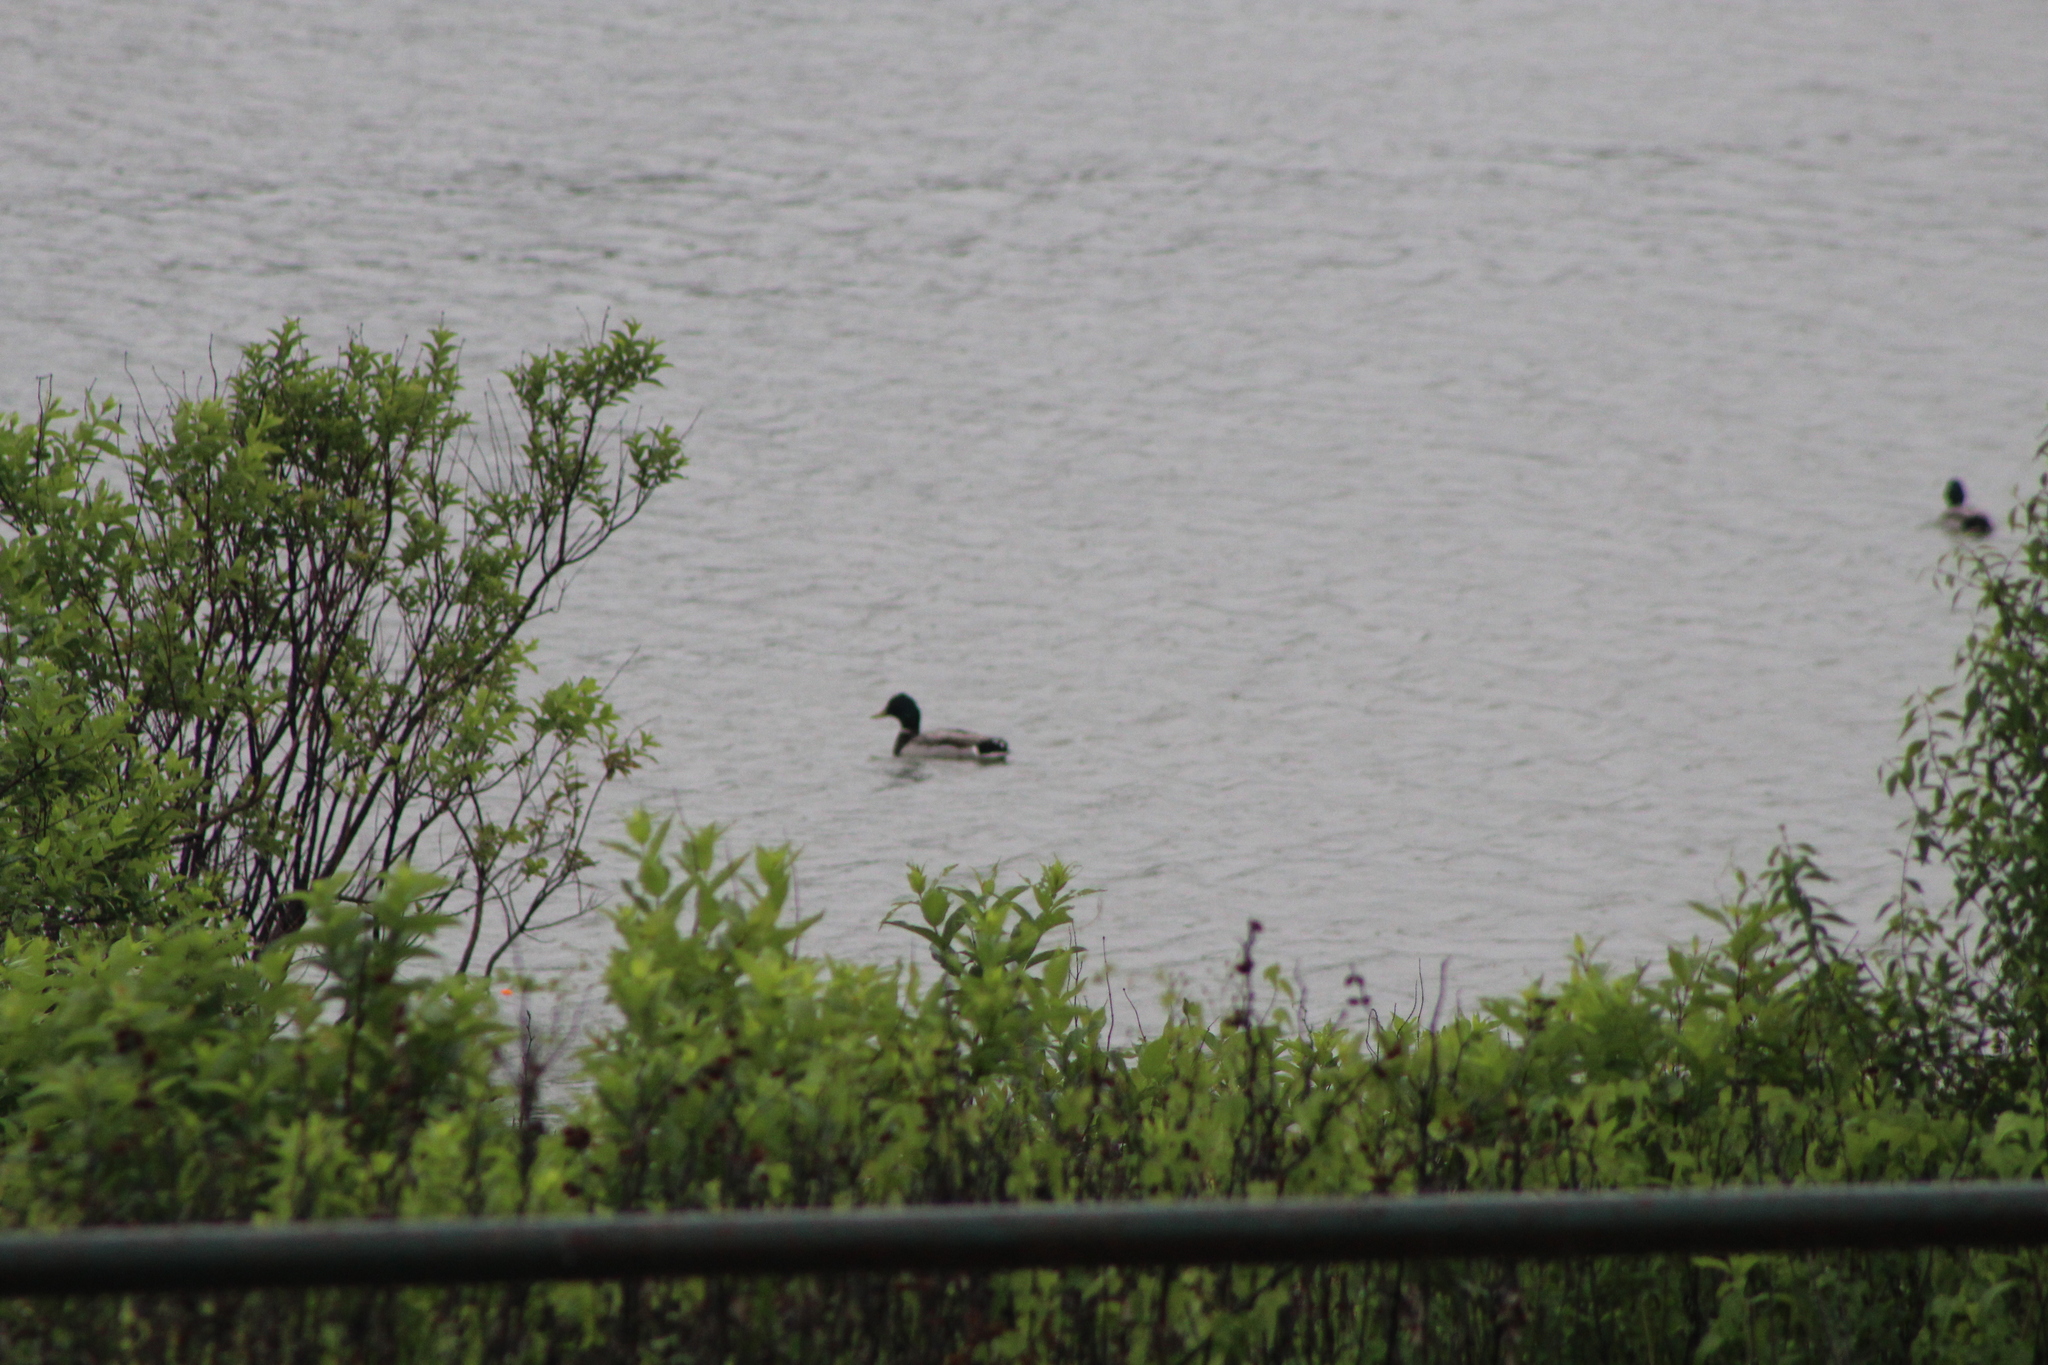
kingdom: Animalia
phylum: Chordata
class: Aves
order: Anseriformes
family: Anatidae
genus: Anas
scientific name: Anas platyrhynchos
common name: Mallard
